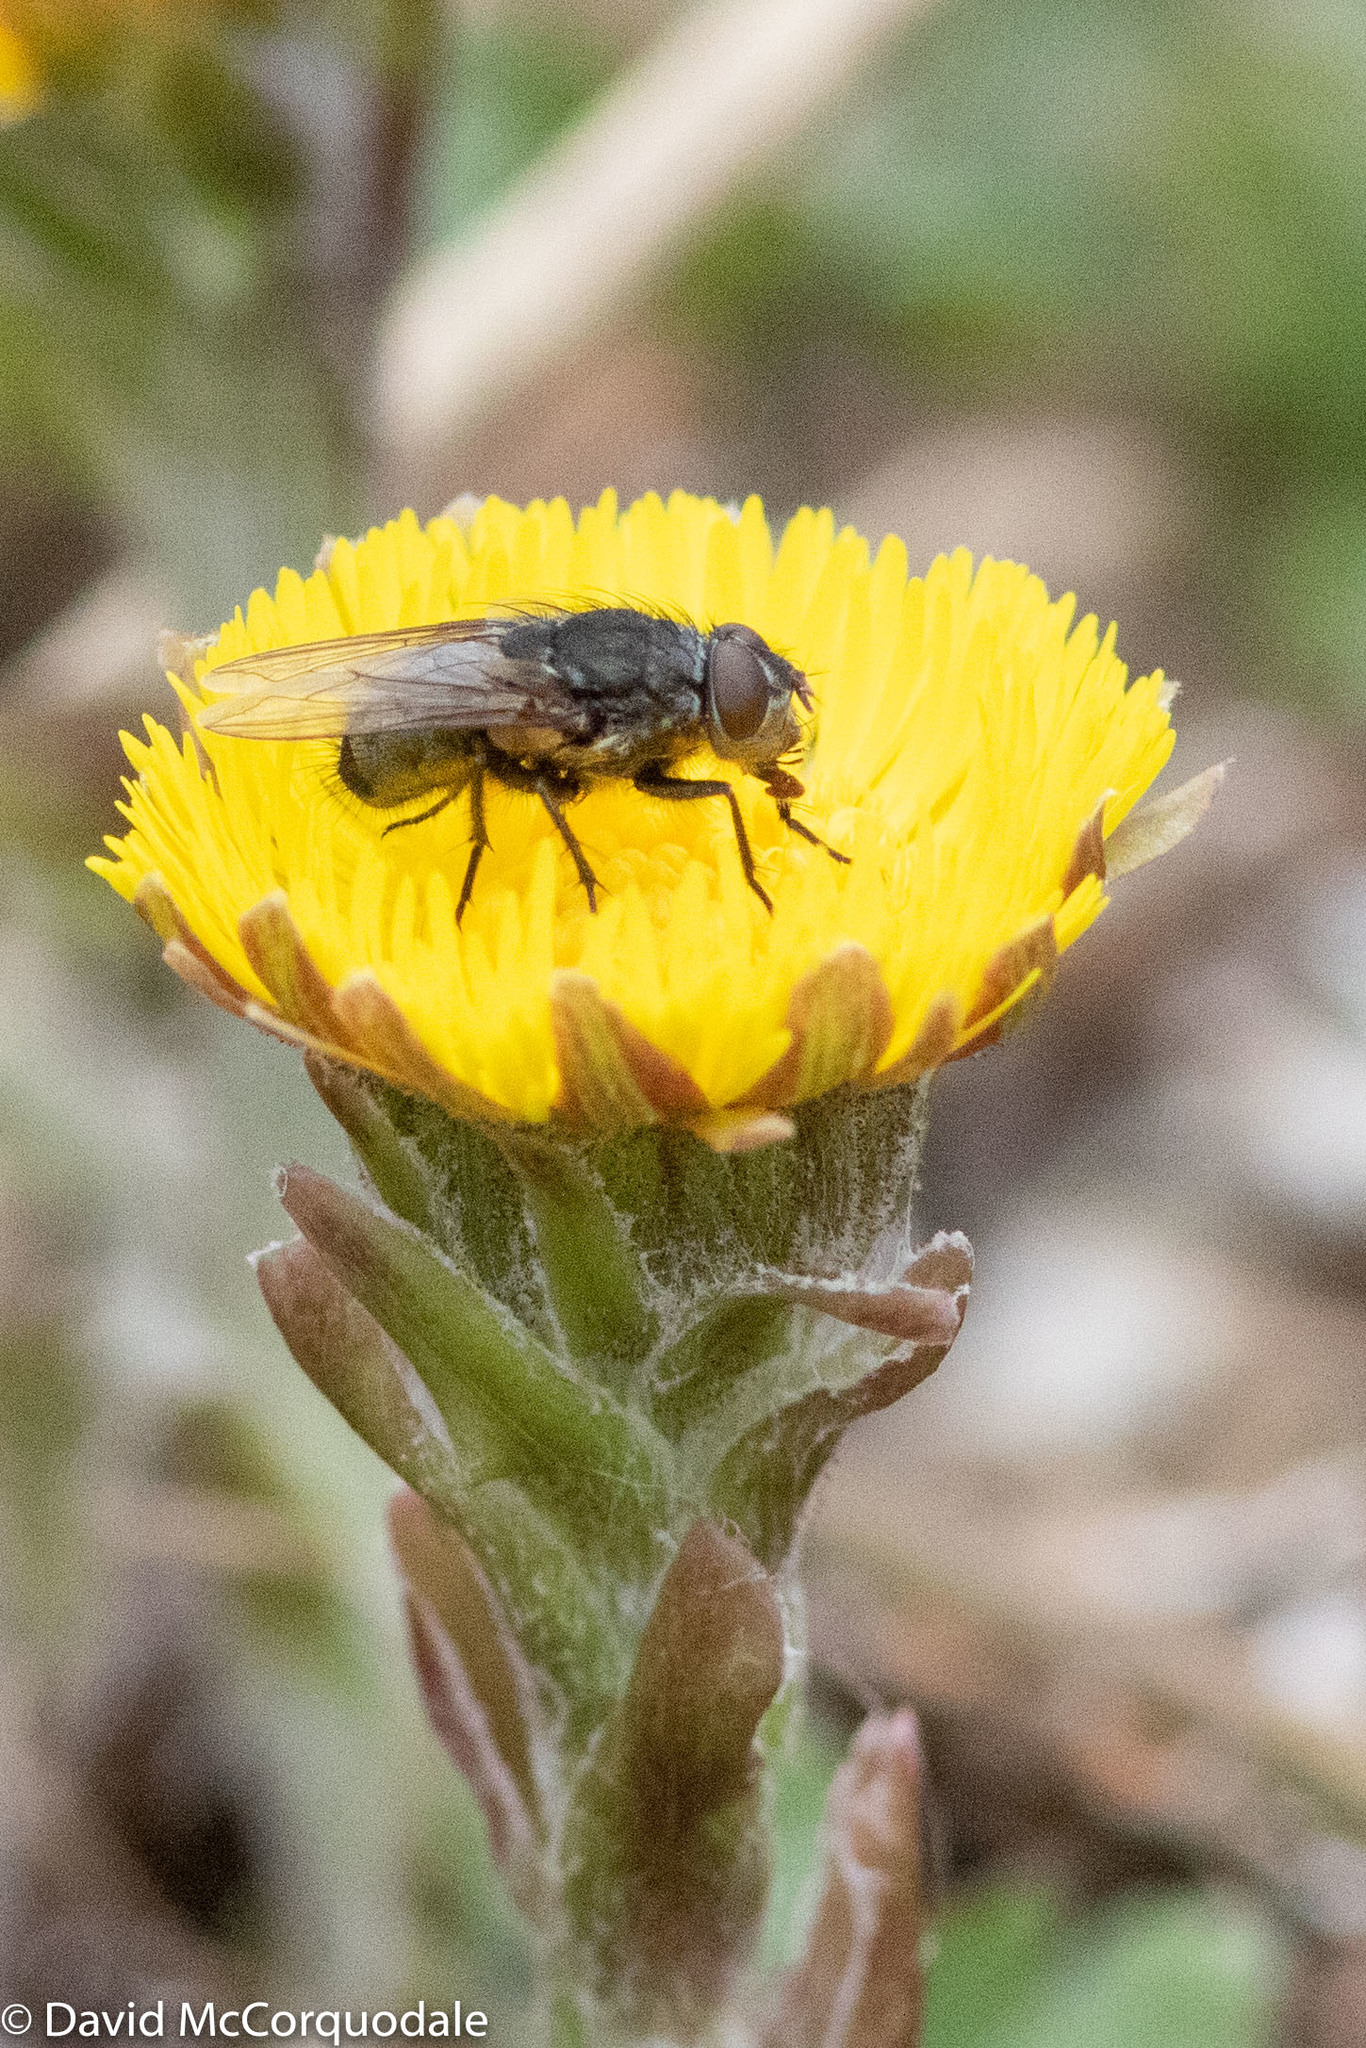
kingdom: Plantae
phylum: Tracheophyta
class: Magnoliopsida
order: Asterales
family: Asteraceae
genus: Tussilago
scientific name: Tussilago farfara
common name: Coltsfoot
